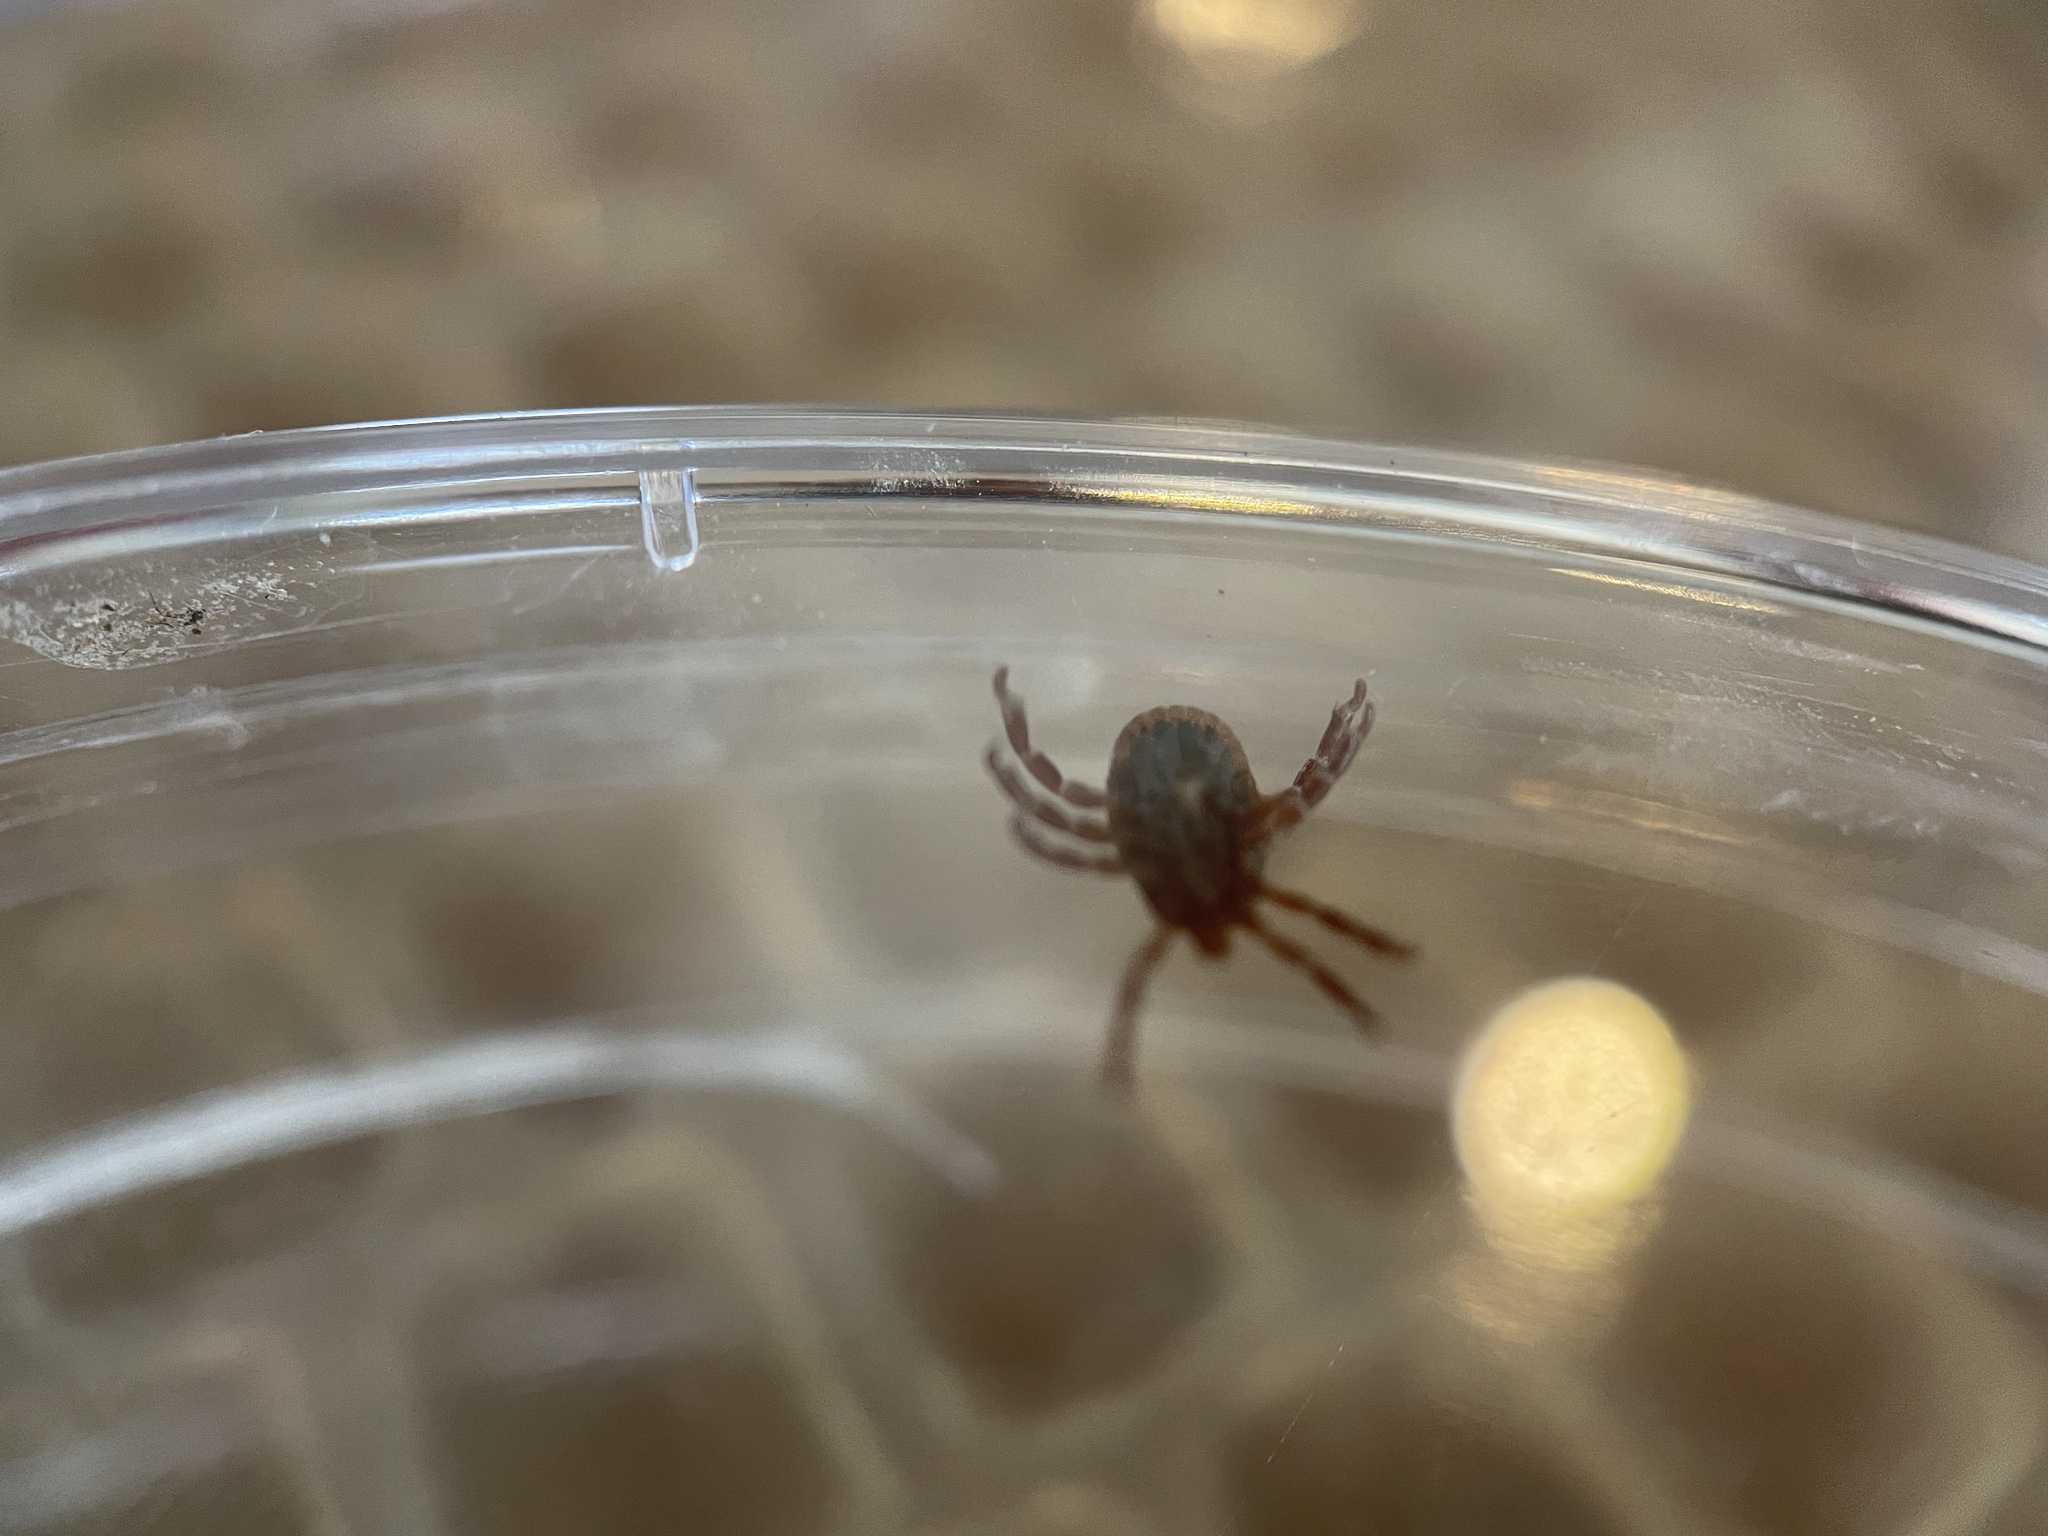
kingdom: Animalia
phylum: Arthropoda
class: Arachnida
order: Ixodida
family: Ixodidae
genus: Amblyomma
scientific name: Amblyomma maculatum
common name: Gulf coast tick
